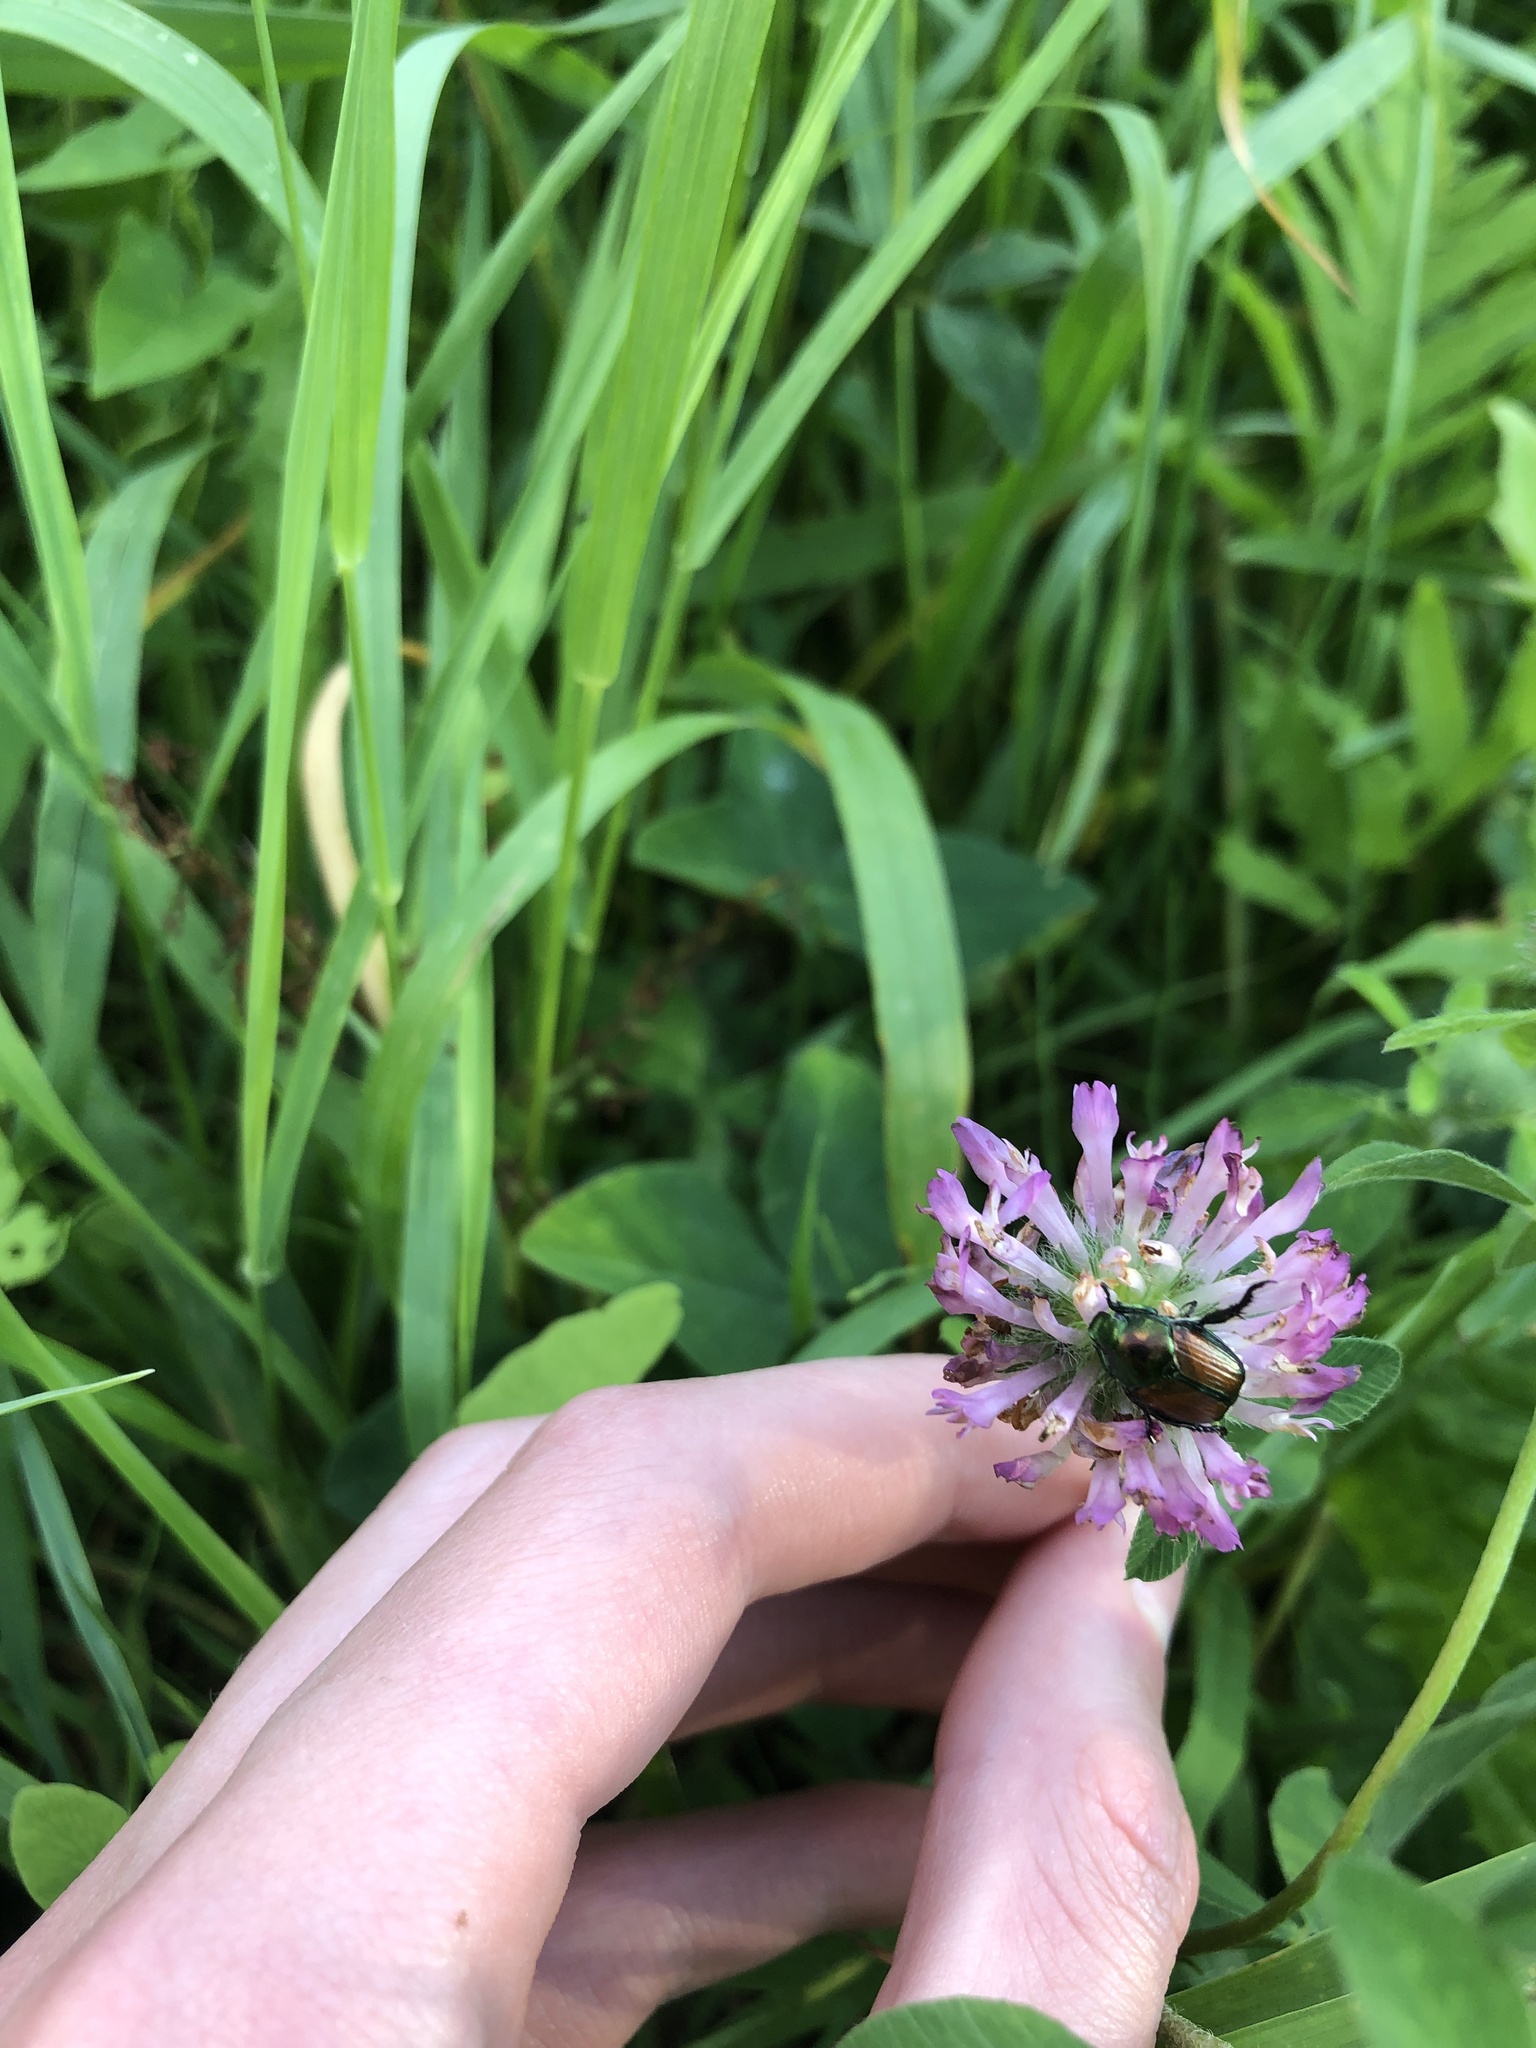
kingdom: Animalia
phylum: Arthropoda
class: Insecta
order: Coleoptera
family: Scarabaeidae
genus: Popillia
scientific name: Popillia japonica
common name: Japanese beetle
